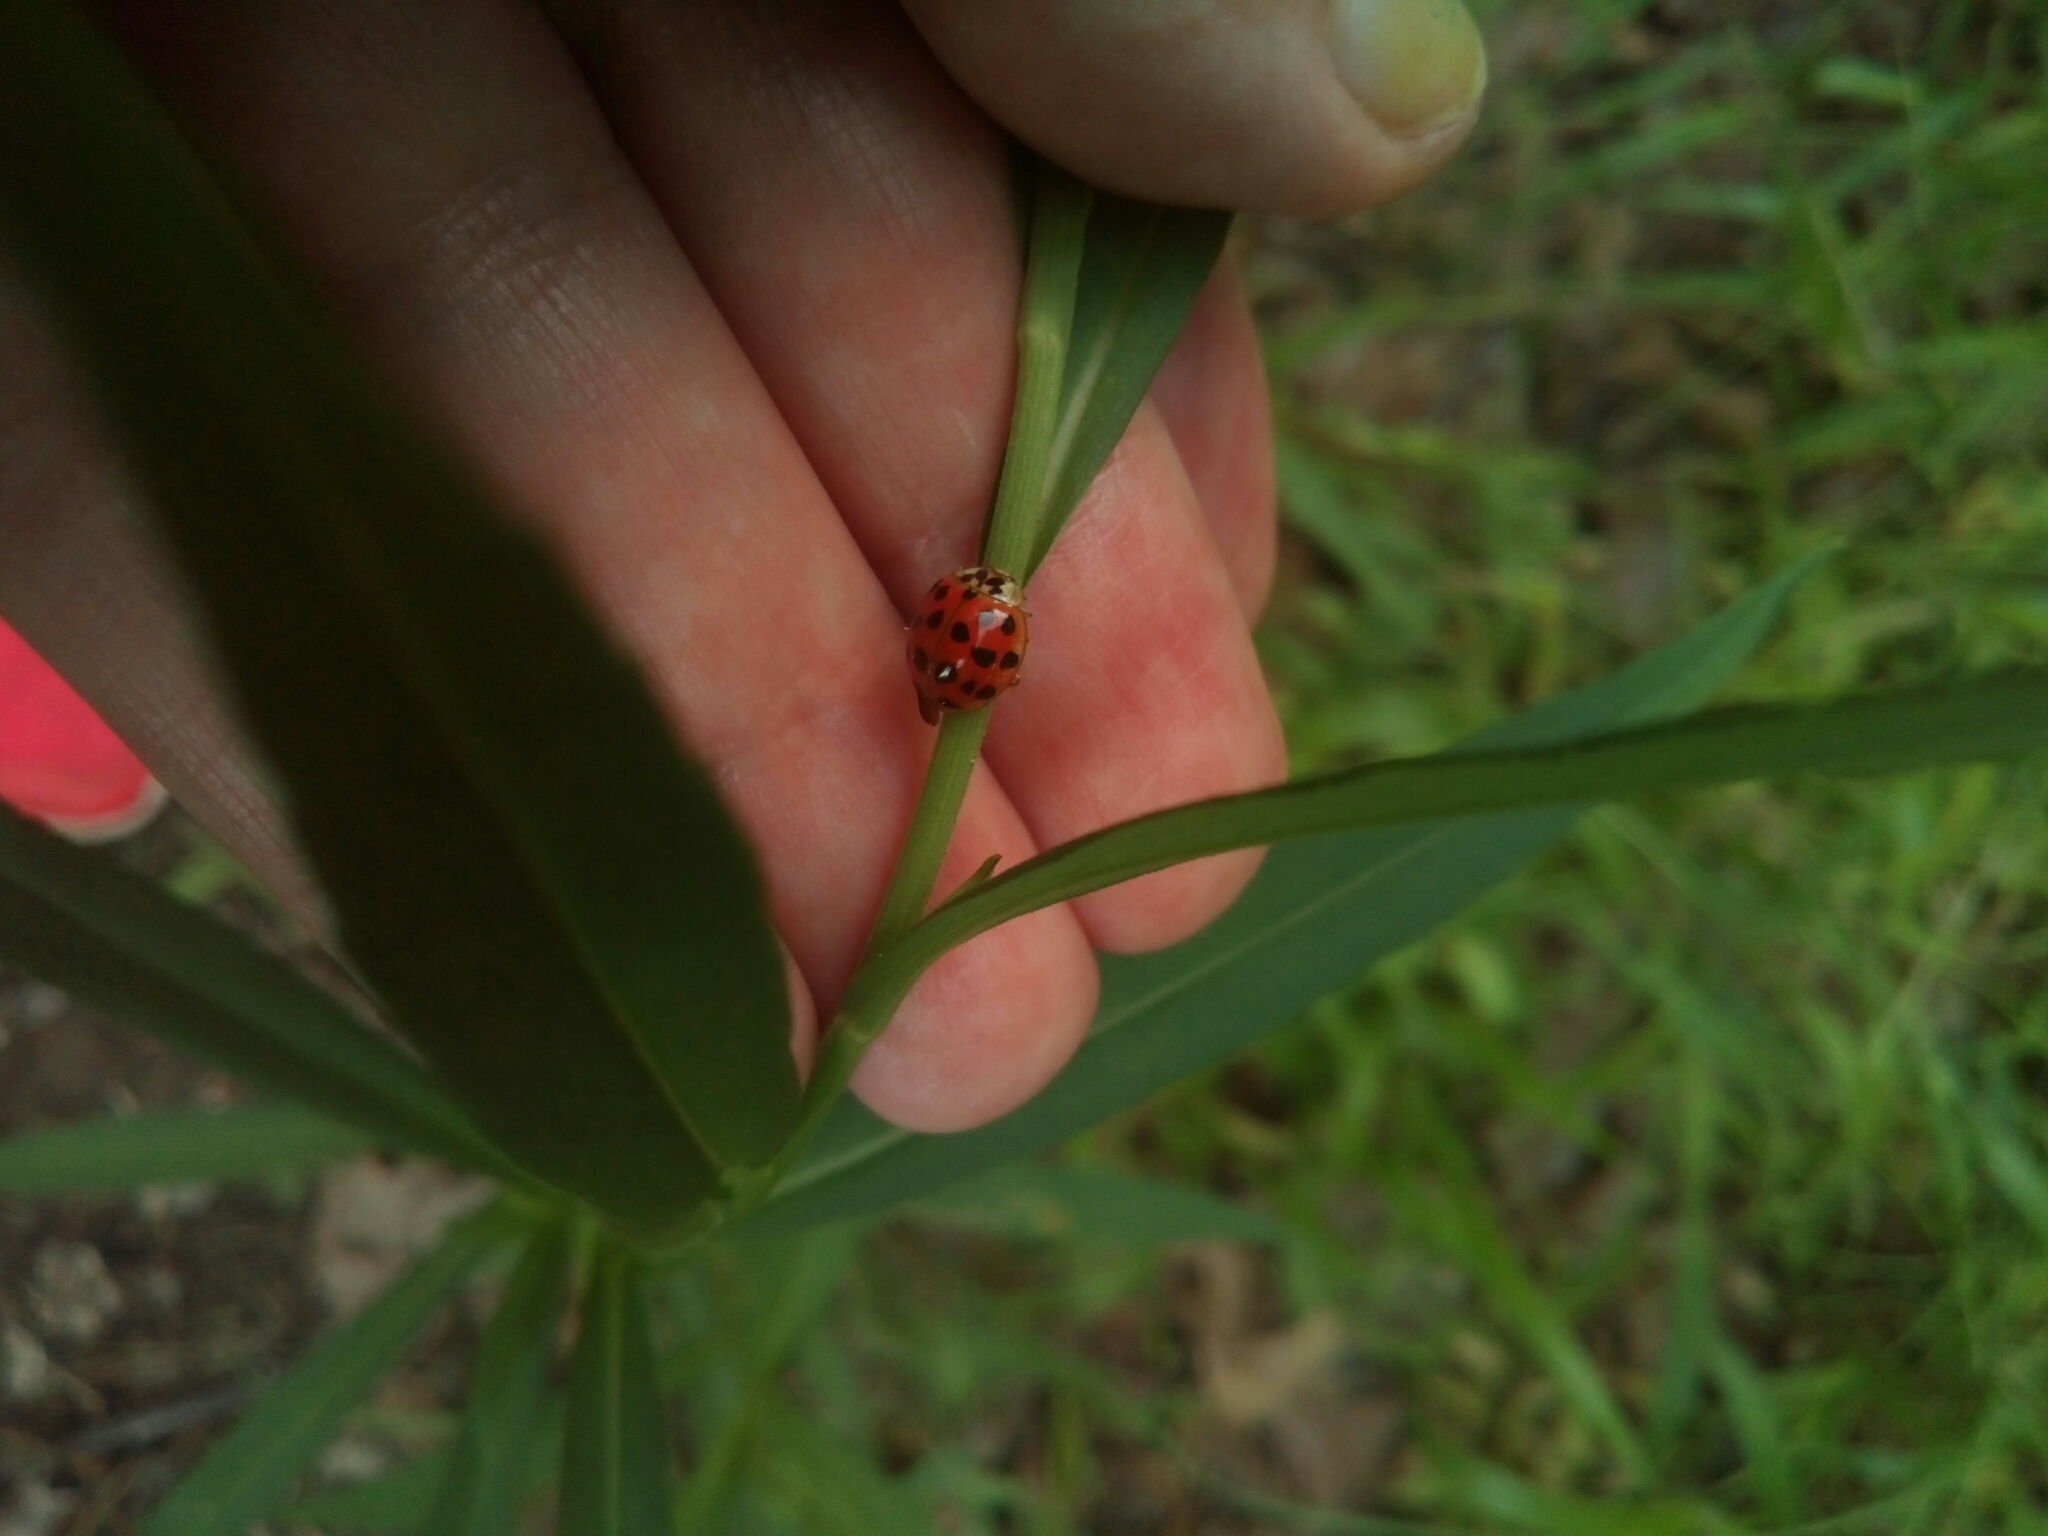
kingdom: Animalia
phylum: Arthropoda
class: Insecta
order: Coleoptera
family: Coccinellidae
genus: Harmonia
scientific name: Harmonia axyridis
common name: Harlequin ladybird
